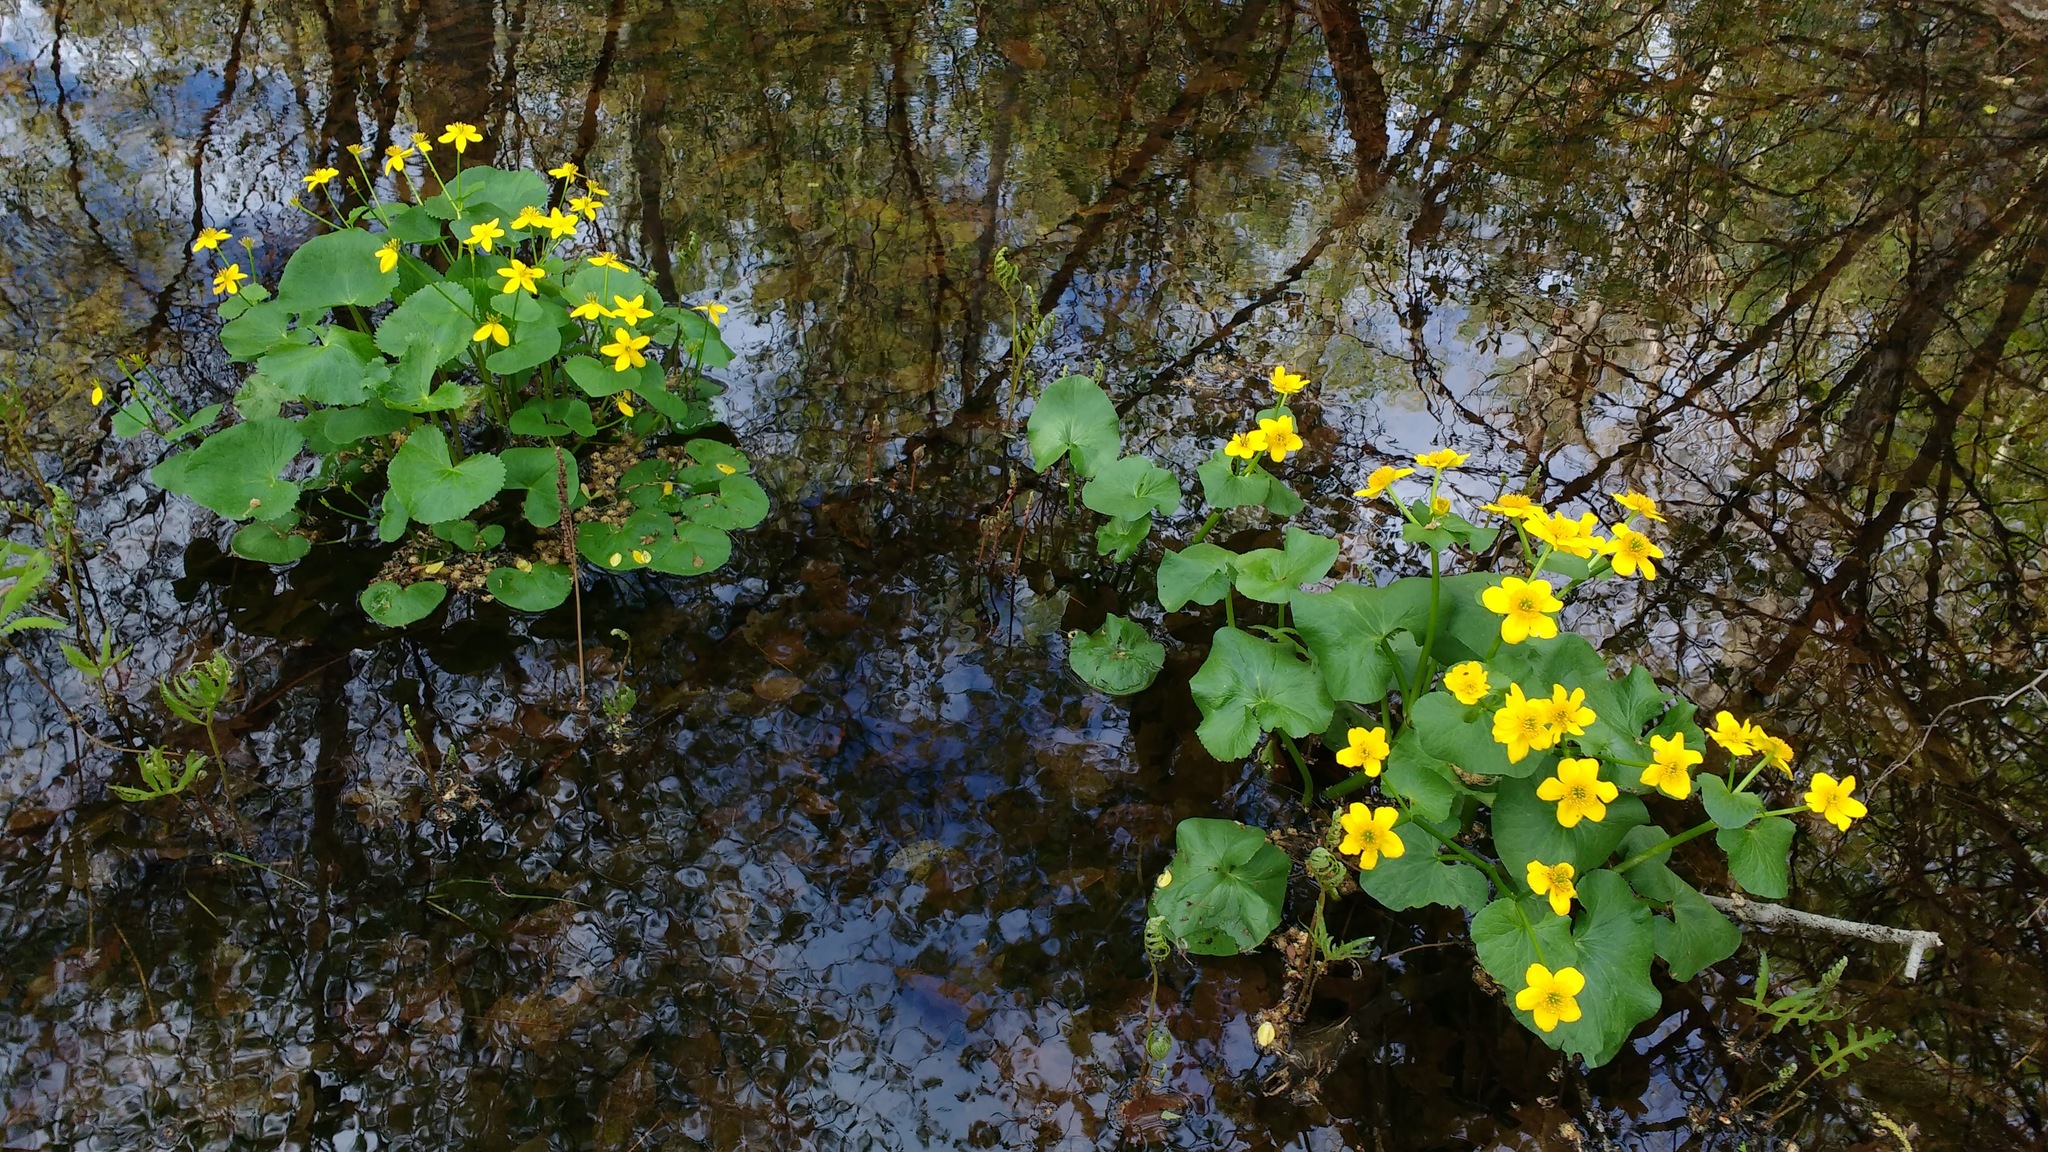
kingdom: Plantae
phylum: Tracheophyta
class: Magnoliopsida
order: Ranunculales
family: Ranunculaceae
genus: Caltha
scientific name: Caltha palustris
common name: Marsh marigold
